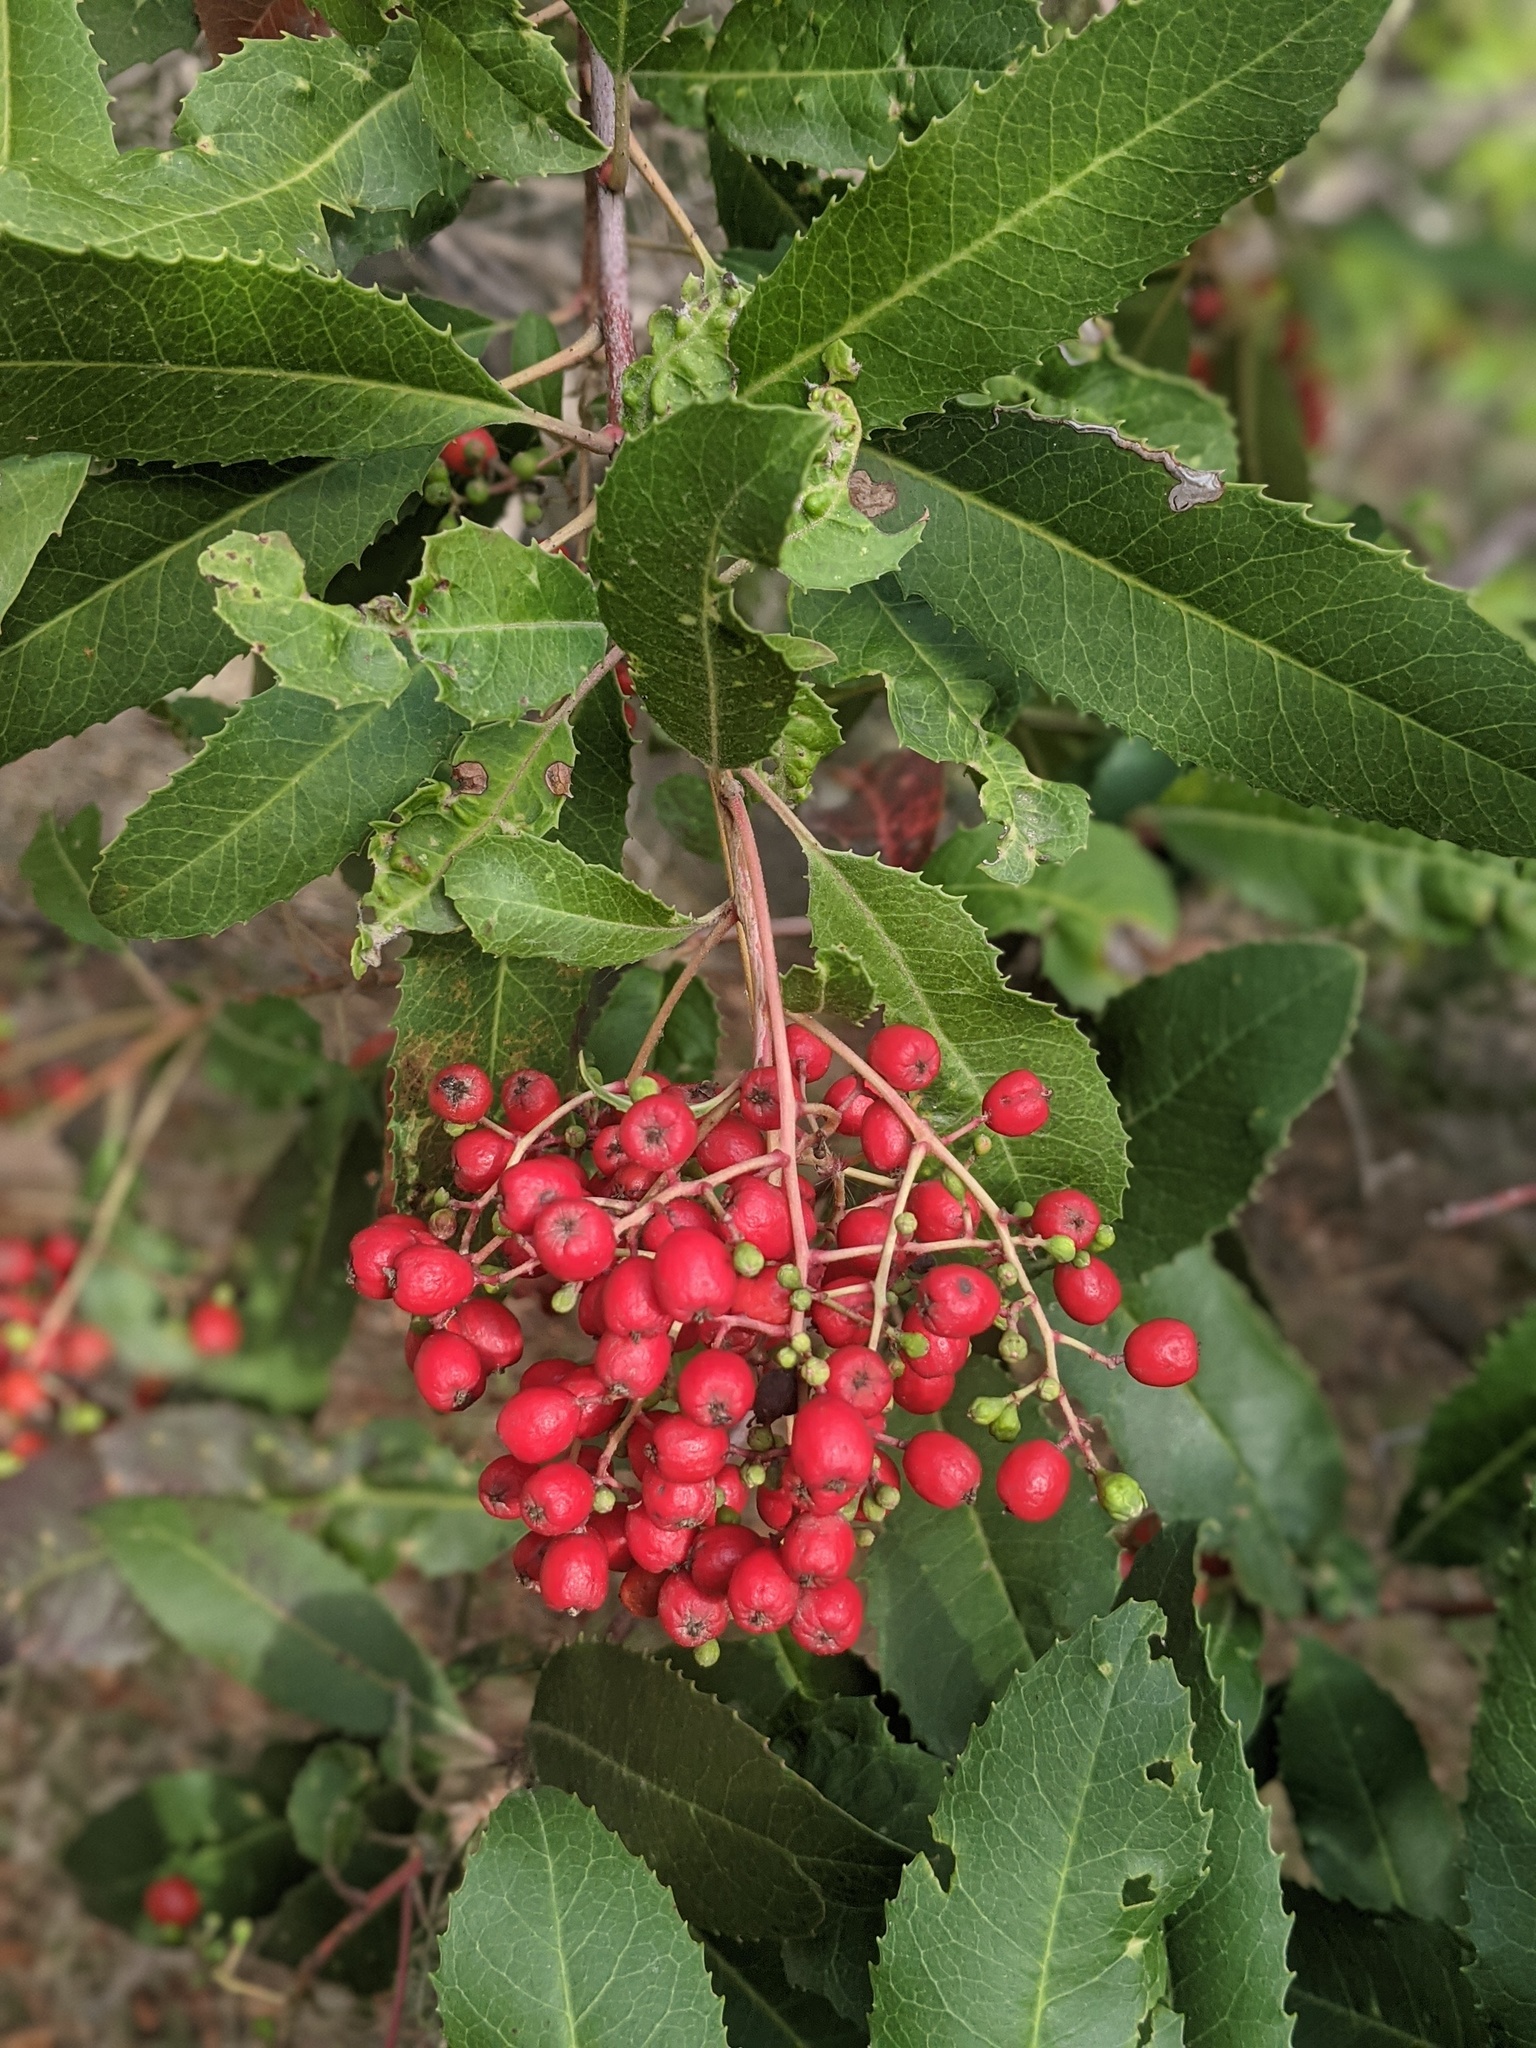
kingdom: Plantae
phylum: Tracheophyta
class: Magnoliopsida
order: Rosales
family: Rosaceae
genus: Heteromeles
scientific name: Heteromeles arbutifolia
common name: California-holly
